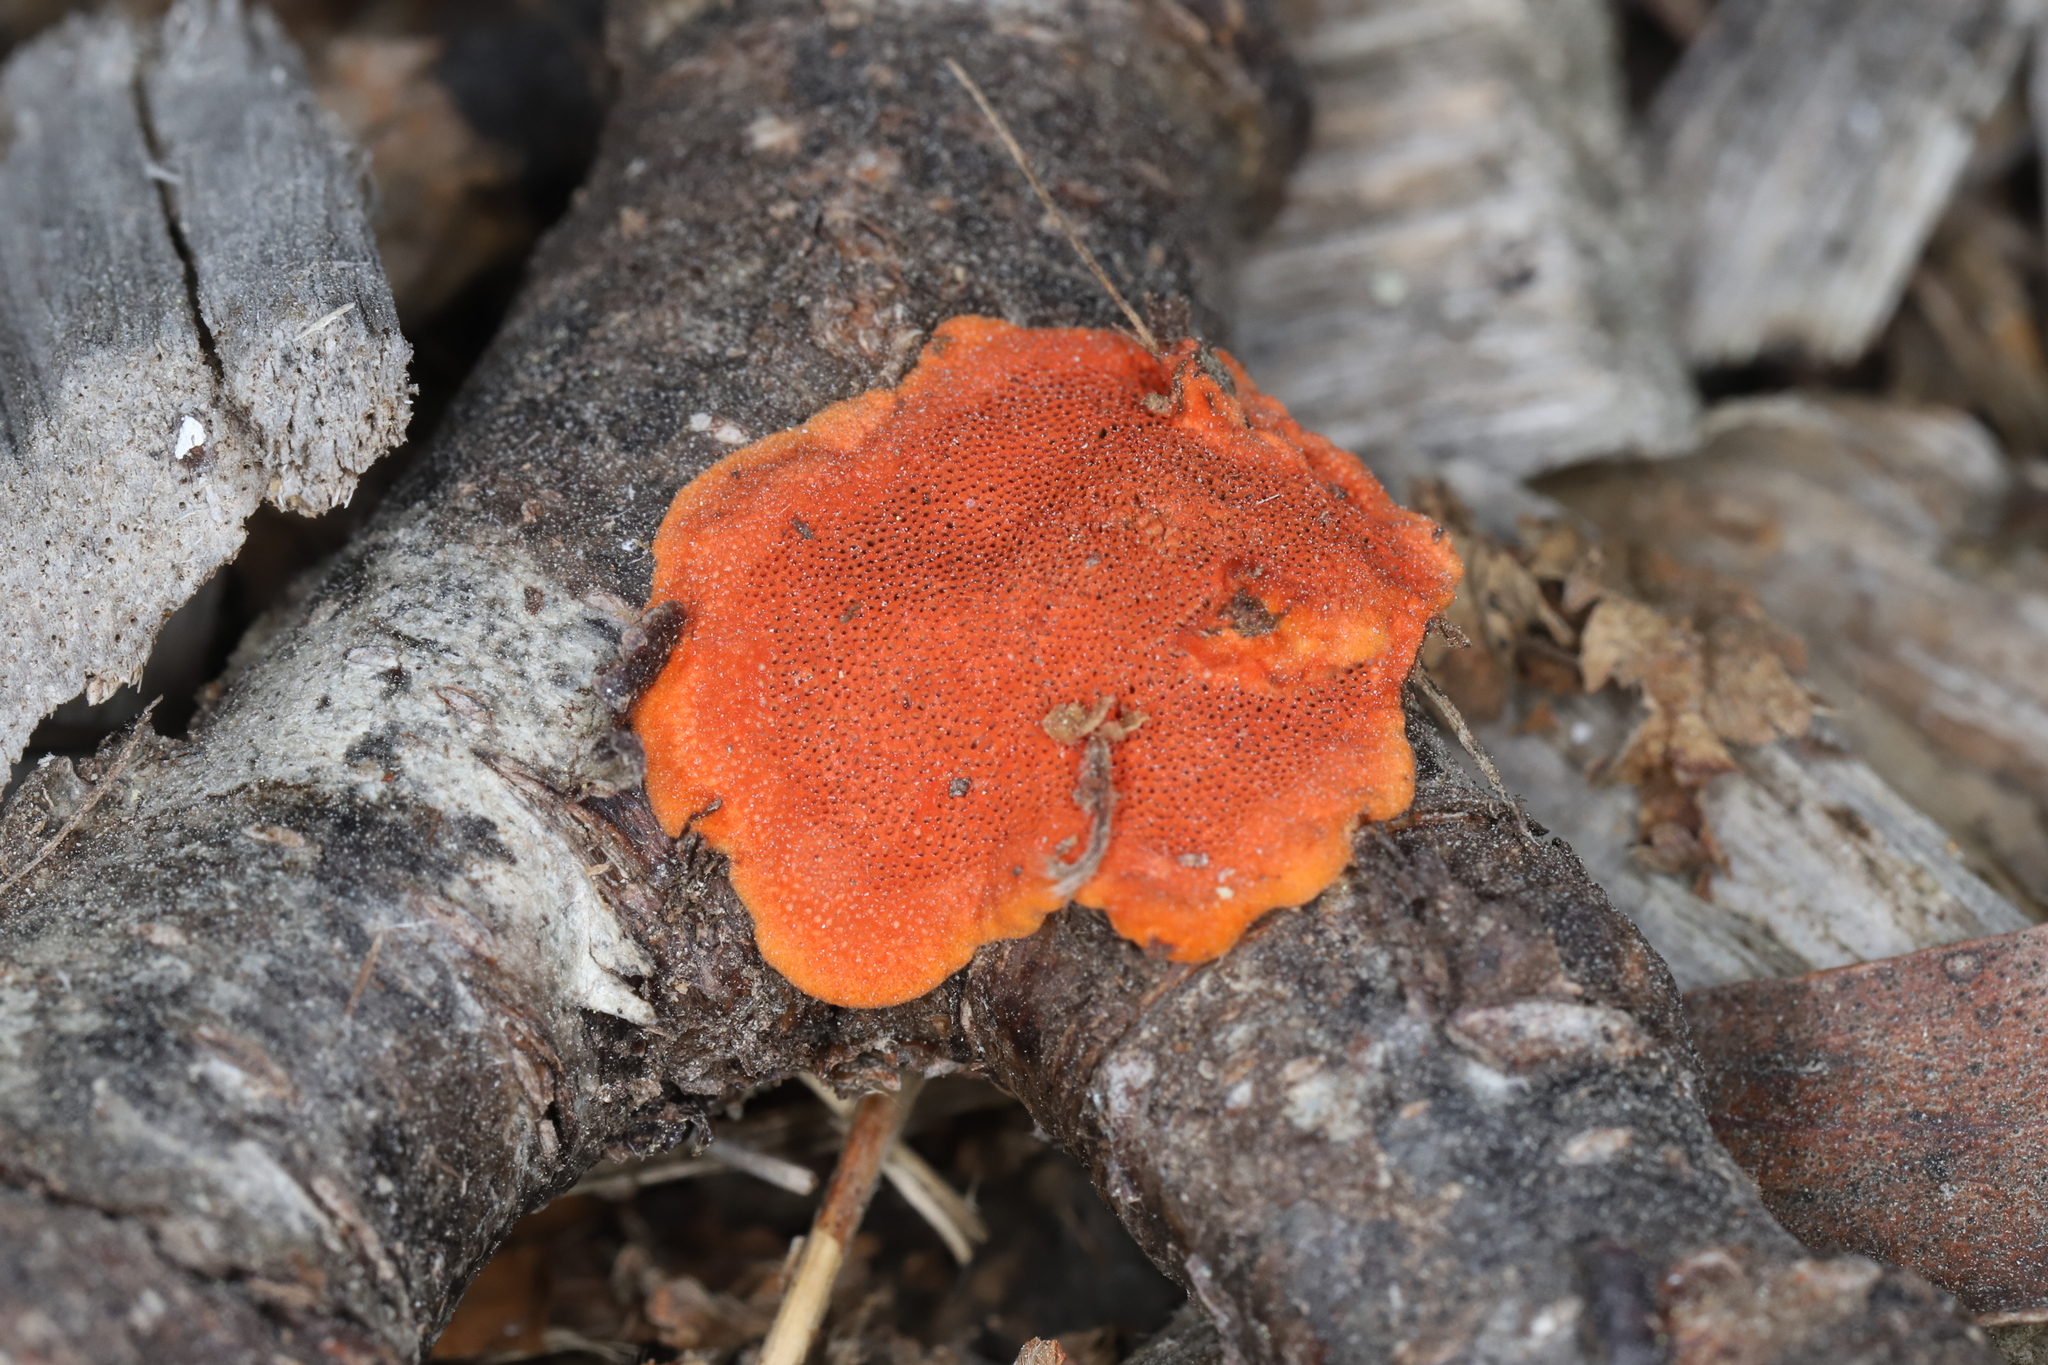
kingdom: Fungi
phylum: Basidiomycota
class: Agaricomycetes
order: Polyporales
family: Polyporaceae
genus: Trametes
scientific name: Trametes coccinea
